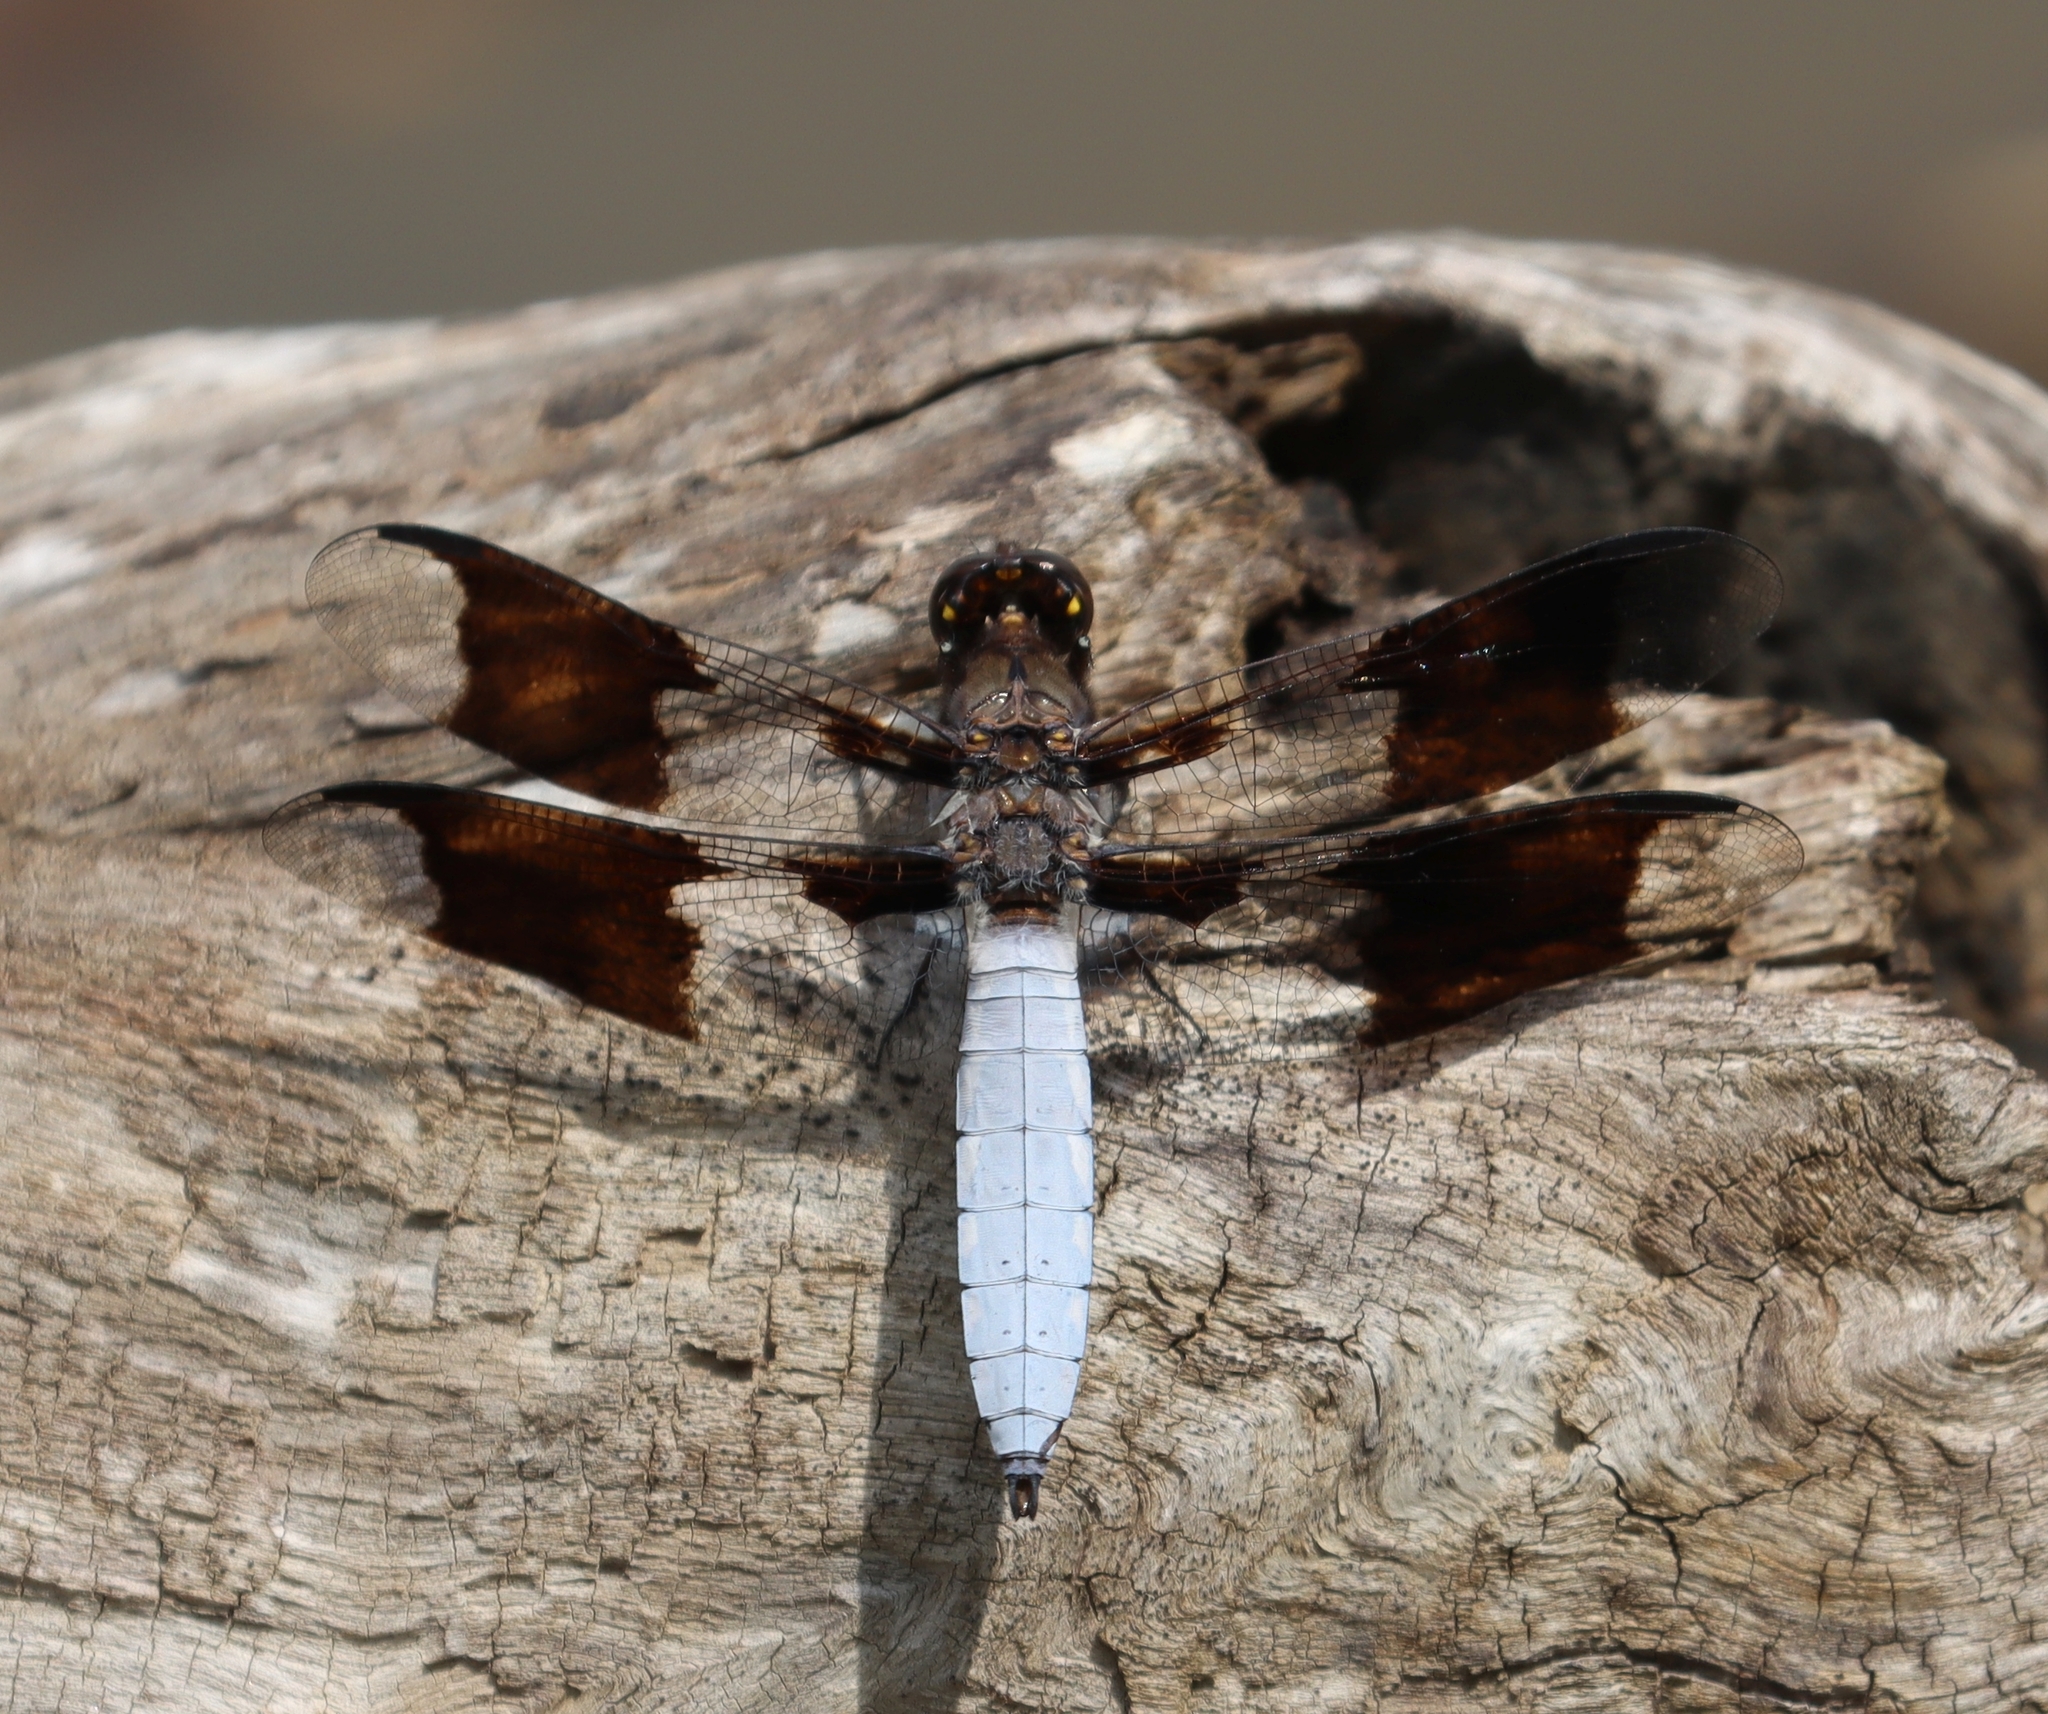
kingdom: Animalia
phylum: Arthropoda
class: Insecta
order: Odonata
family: Libellulidae
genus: Plathemis
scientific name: Plathemis lydia
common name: Common whitetail
